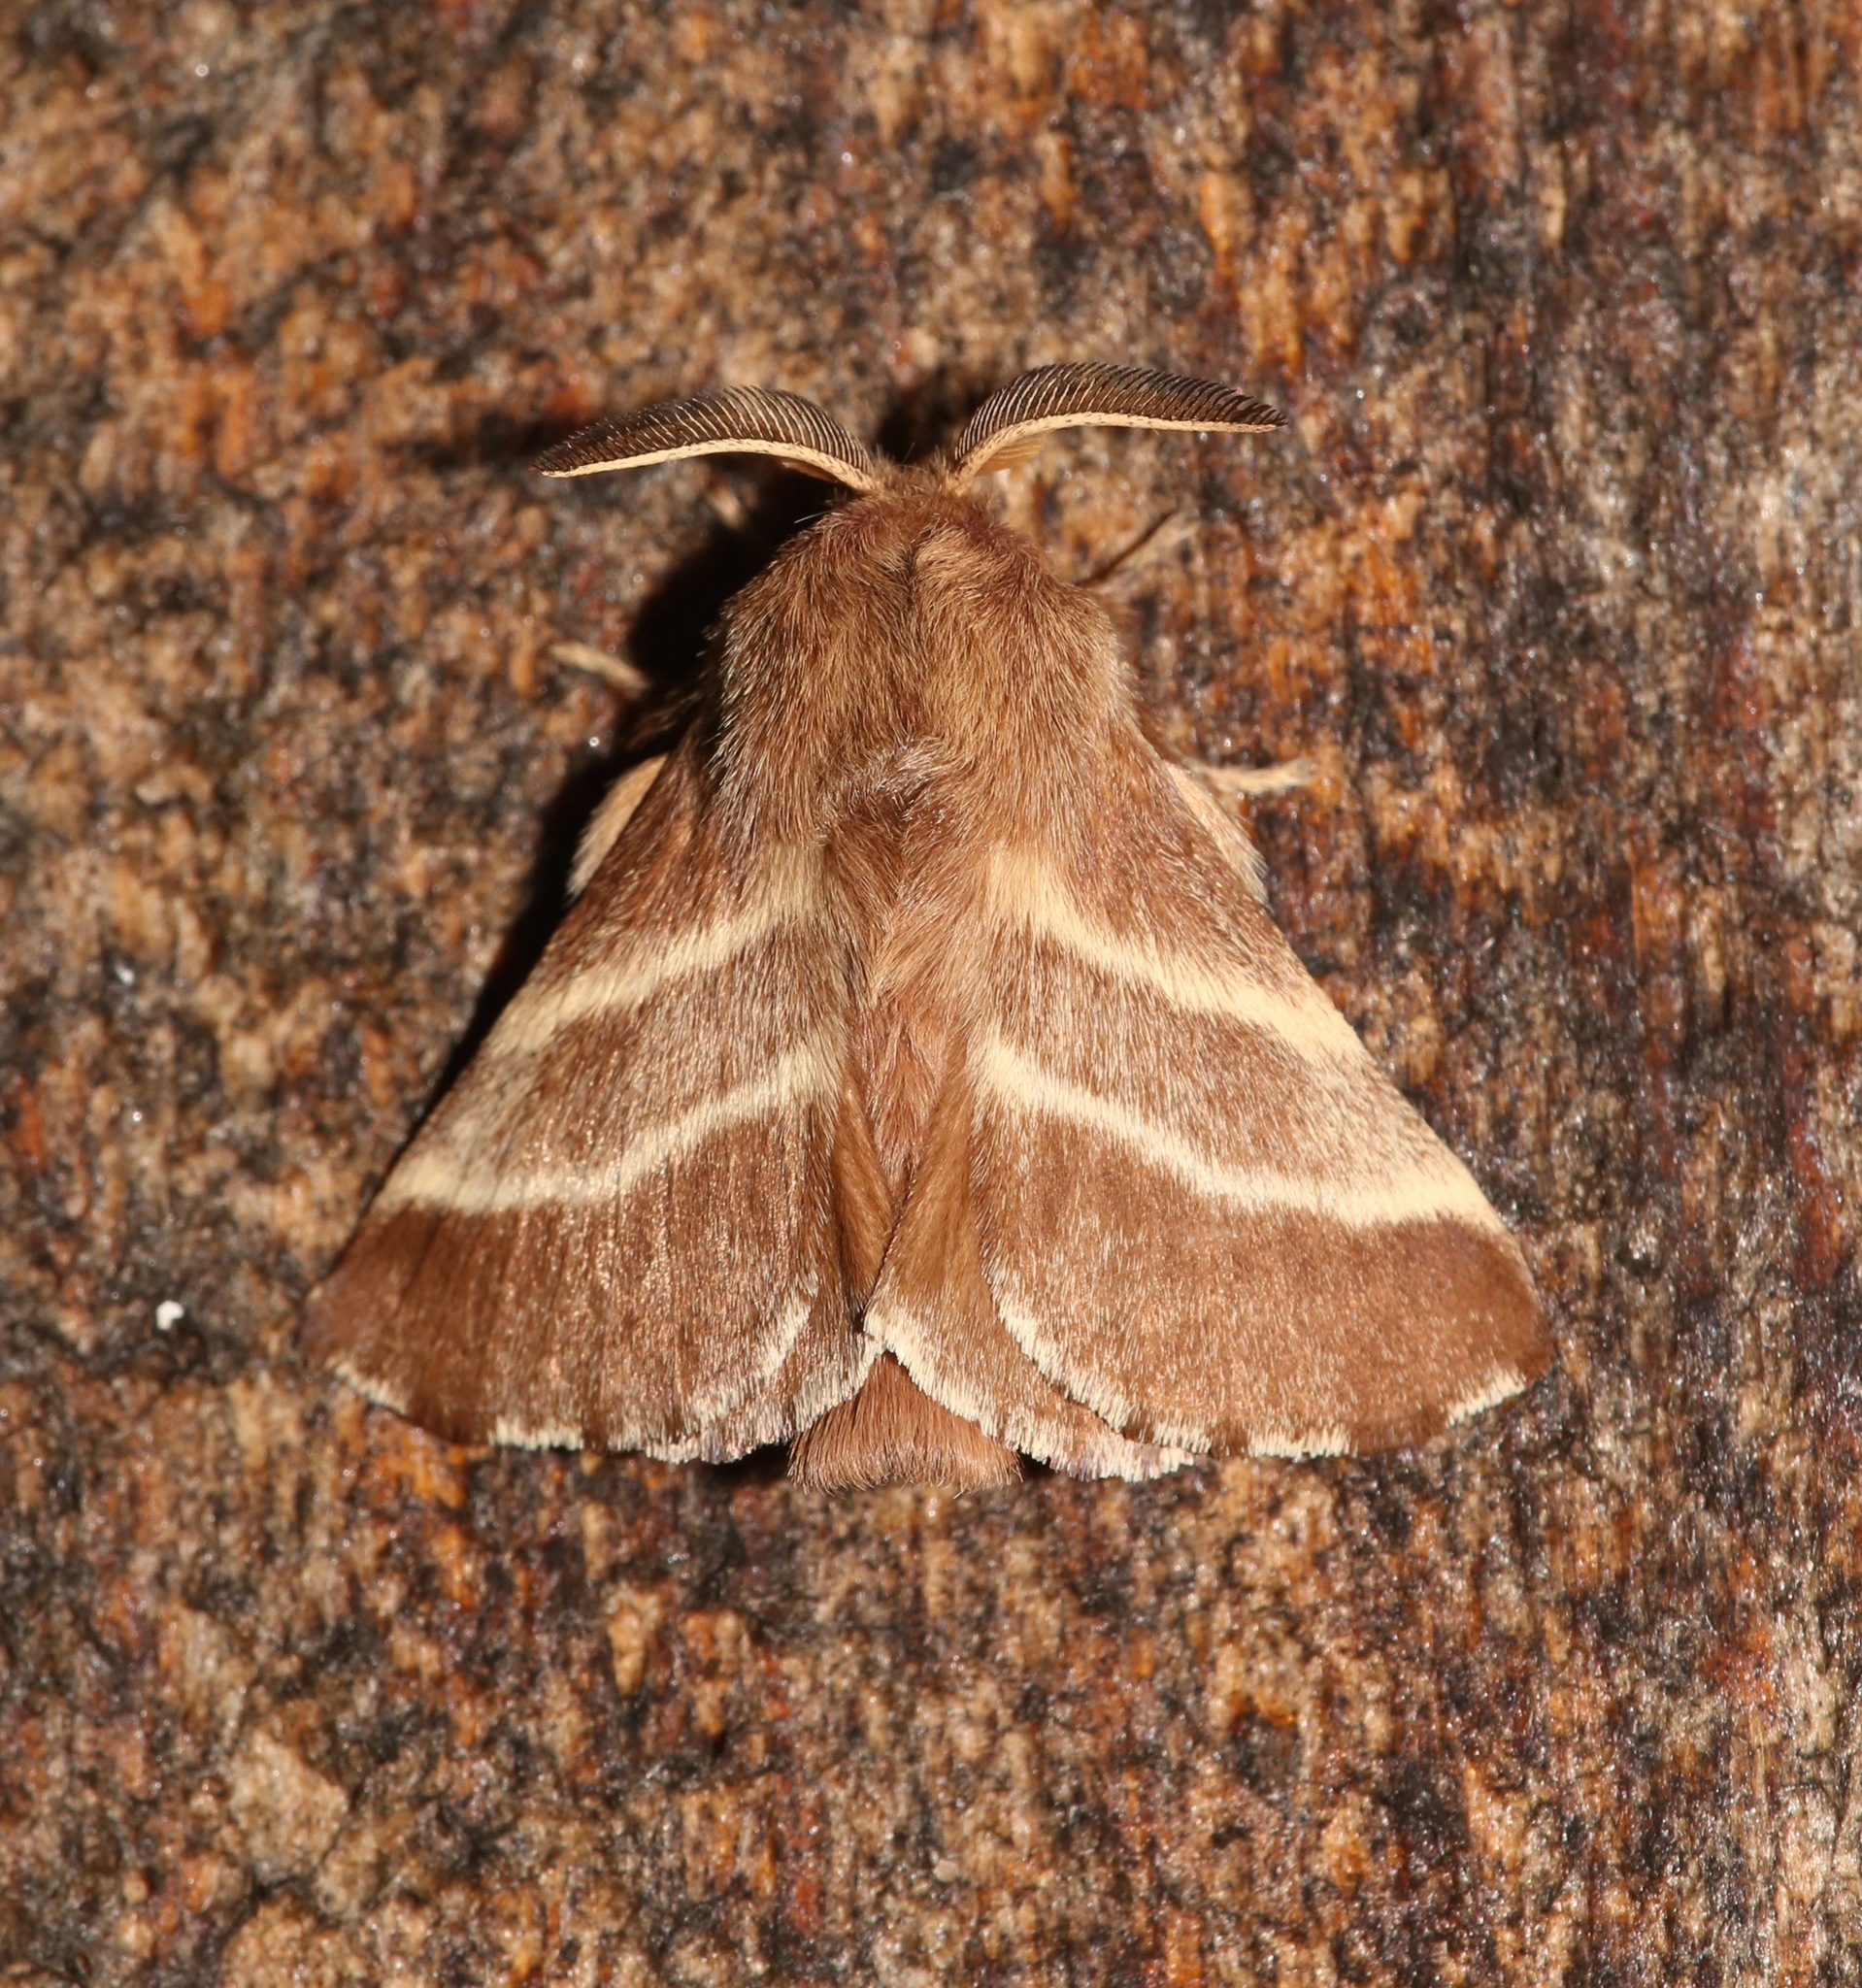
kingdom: Animalia
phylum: Arthropoda
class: Insecta
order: Lepidoptera
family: Lasiocampidae
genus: Malacosoma
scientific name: Malacosoma americana
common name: Eastern tent caterpillar moth
